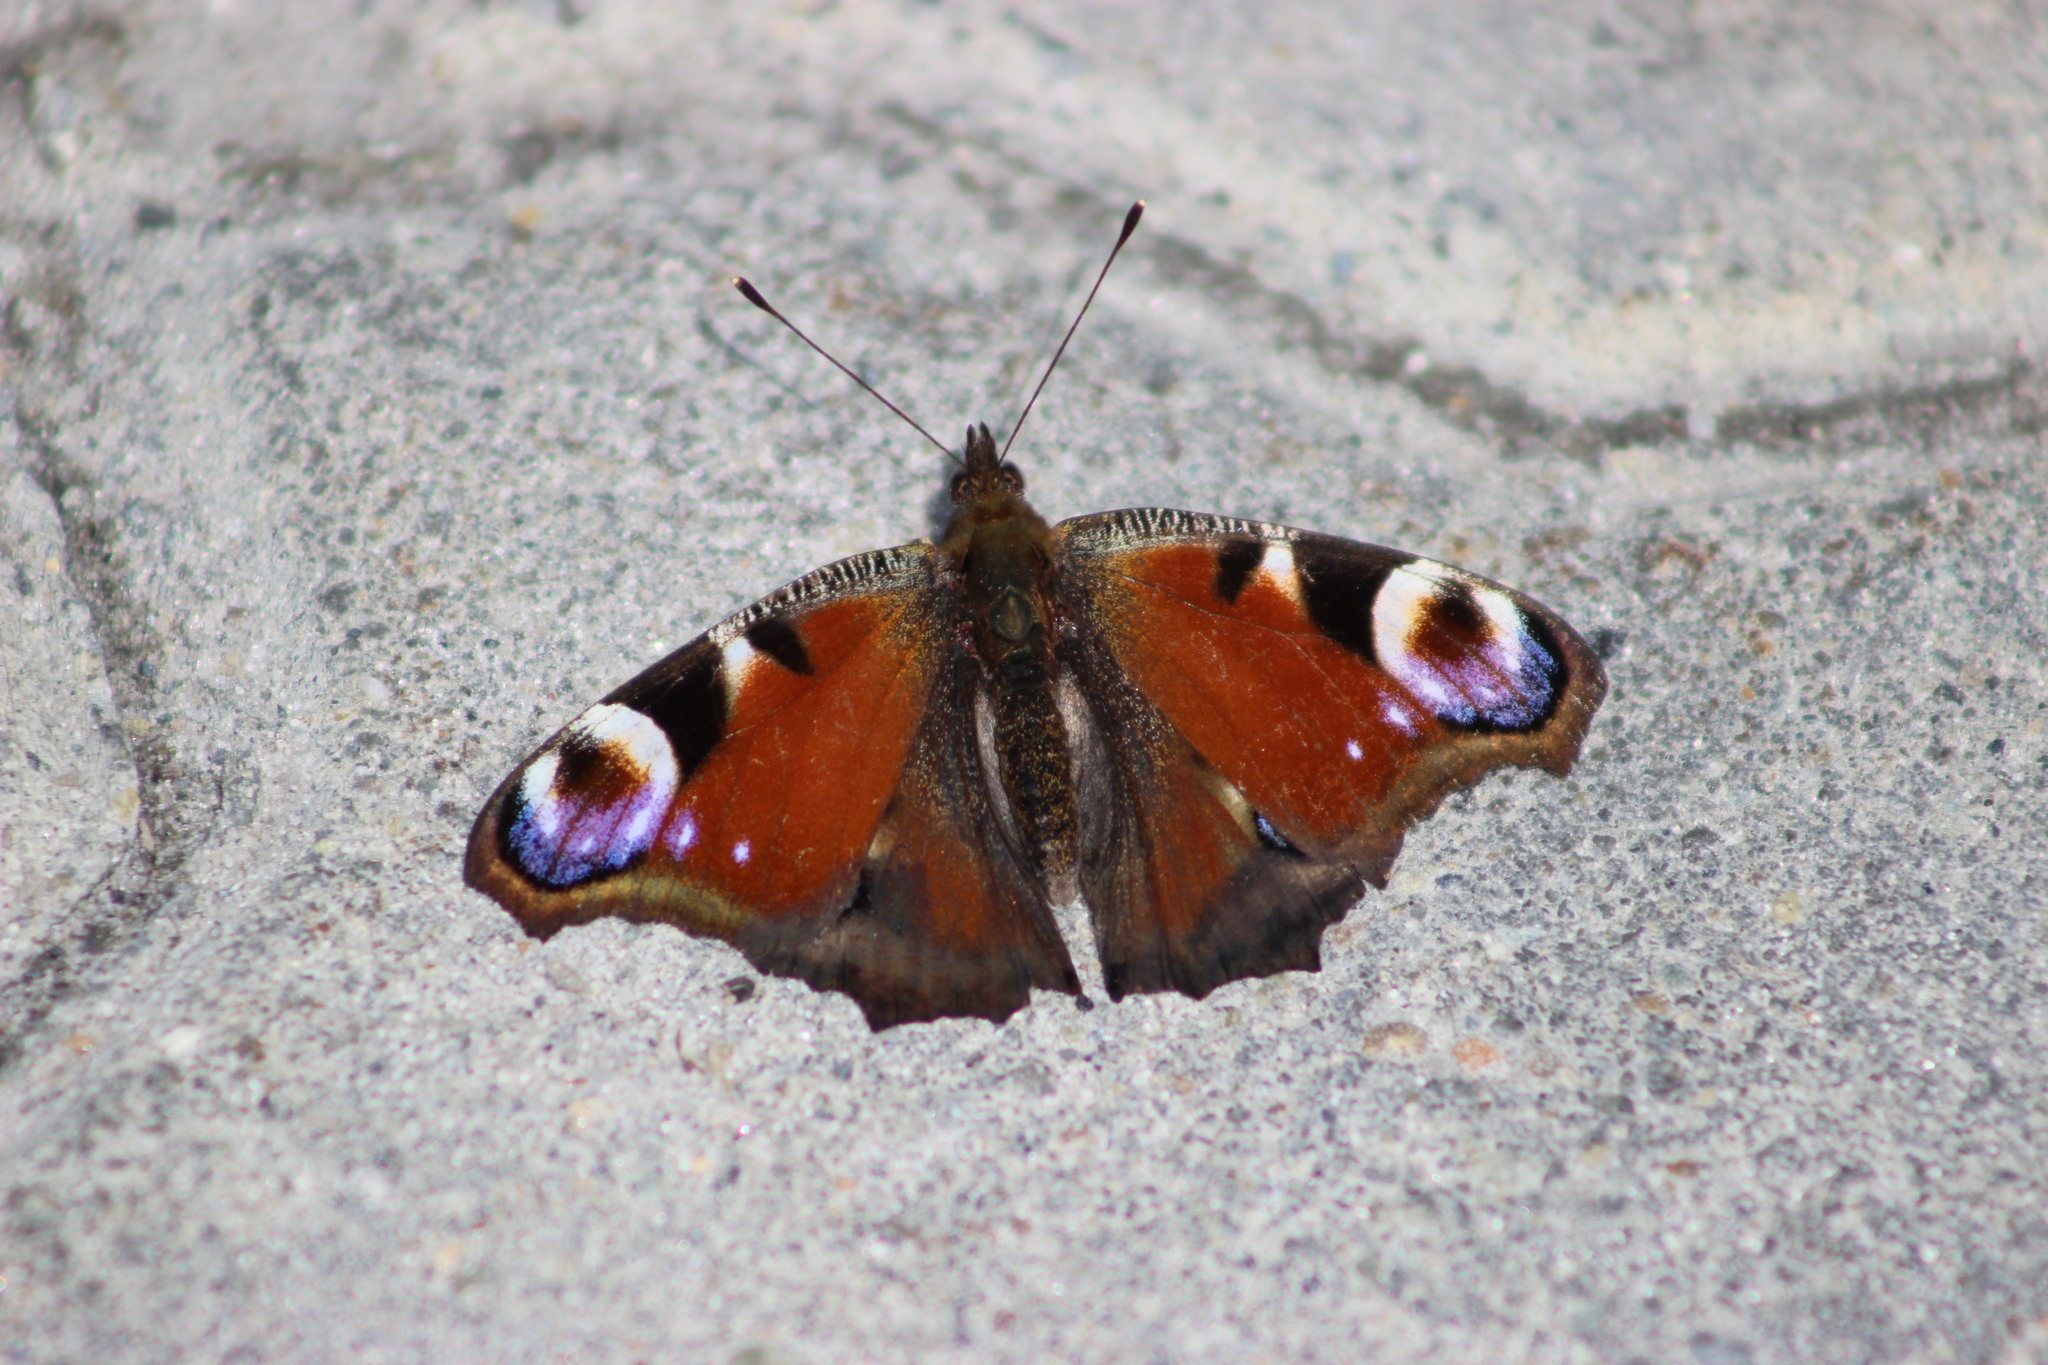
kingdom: Animalia
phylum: Arthropoda
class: Insecta
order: Lepidoptera
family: Nymphalidae
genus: Aglais
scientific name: Aglais io
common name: Peacock
